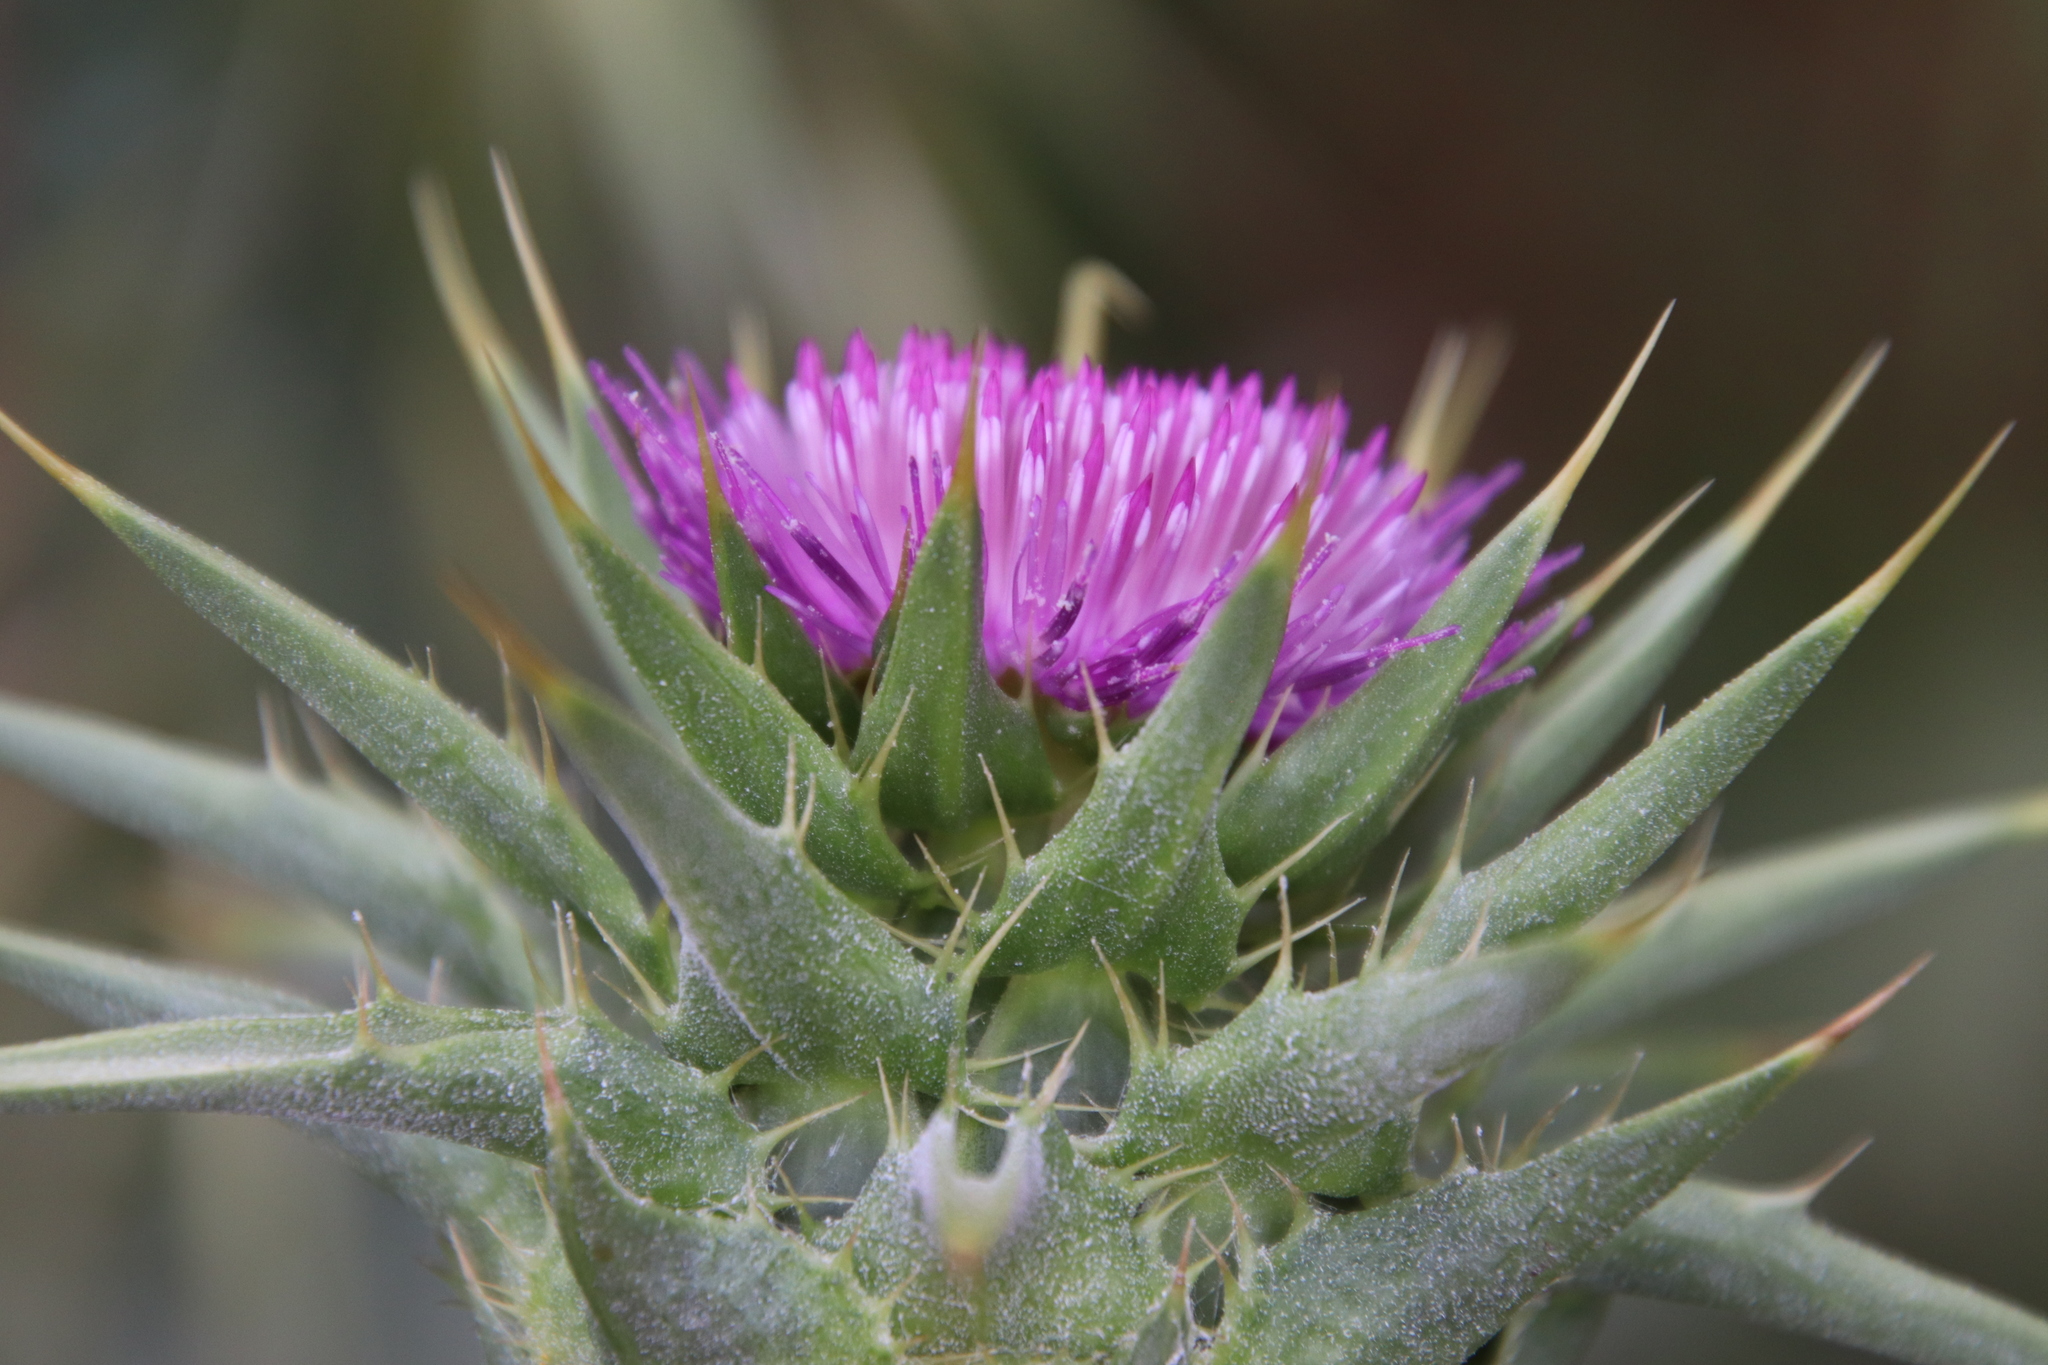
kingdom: Plantae
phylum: Tracheophyta
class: Magnoliopsida
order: Asterales
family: Asteraceae
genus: Silybum
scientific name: Silybum marianum
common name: Milk thistle
